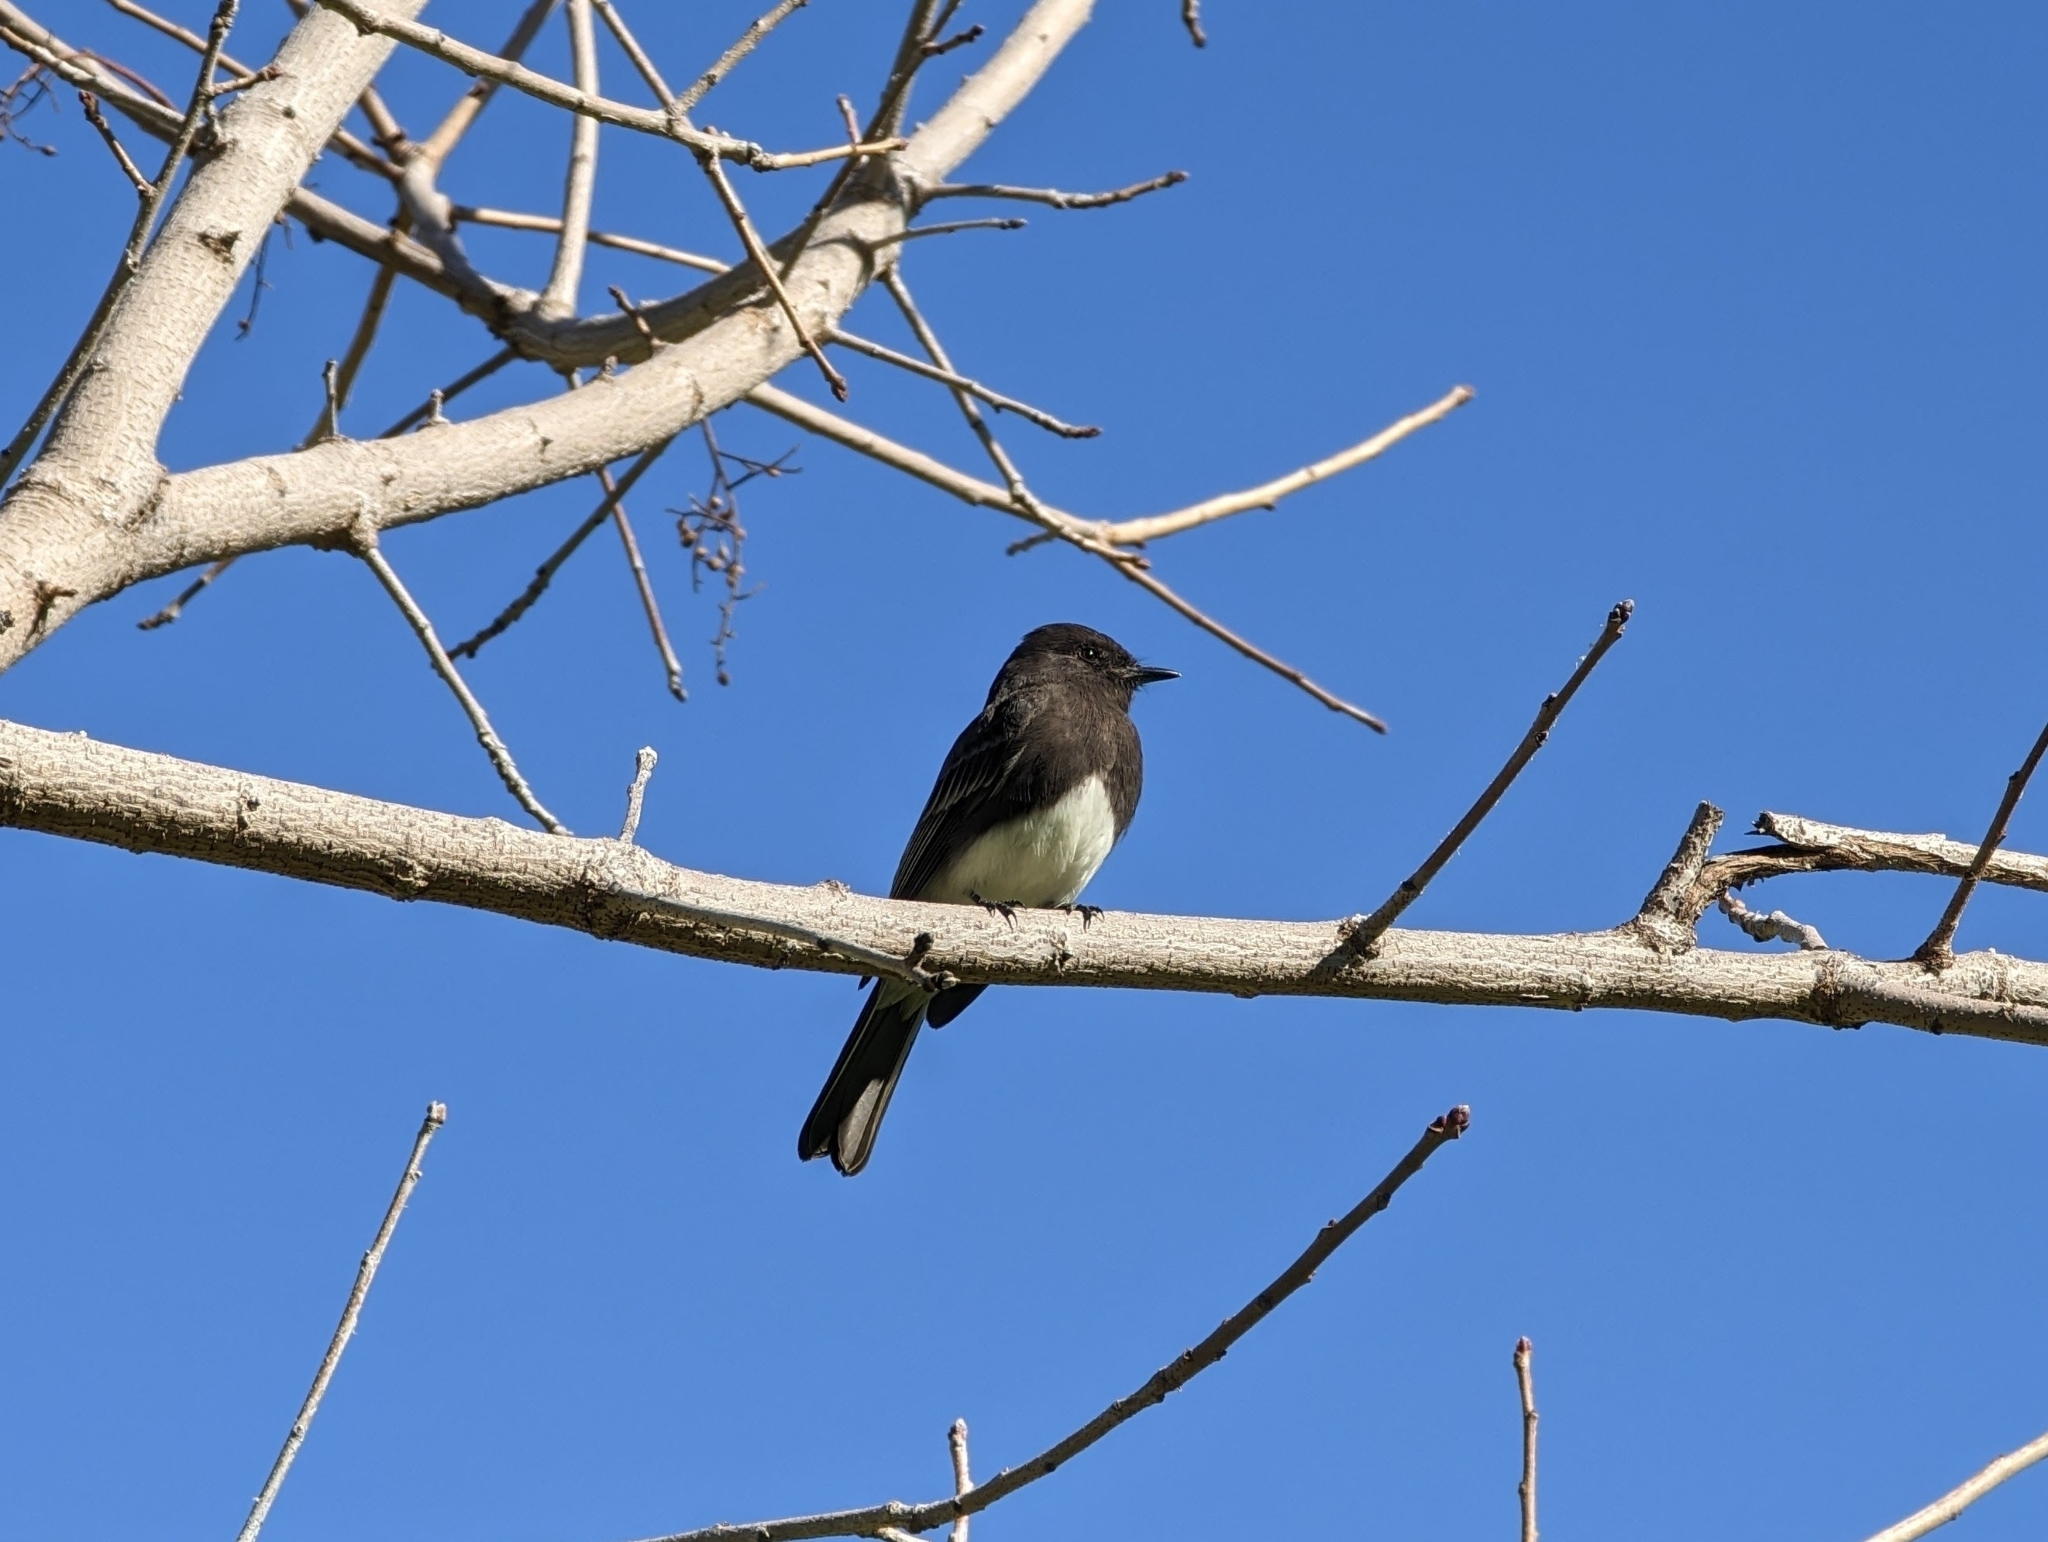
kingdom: Animalia
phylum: Chordata
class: Aves
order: Passeriformes
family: Tyrannidae
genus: Sayornis
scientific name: Sayornis nigricans
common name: Black phoebe
